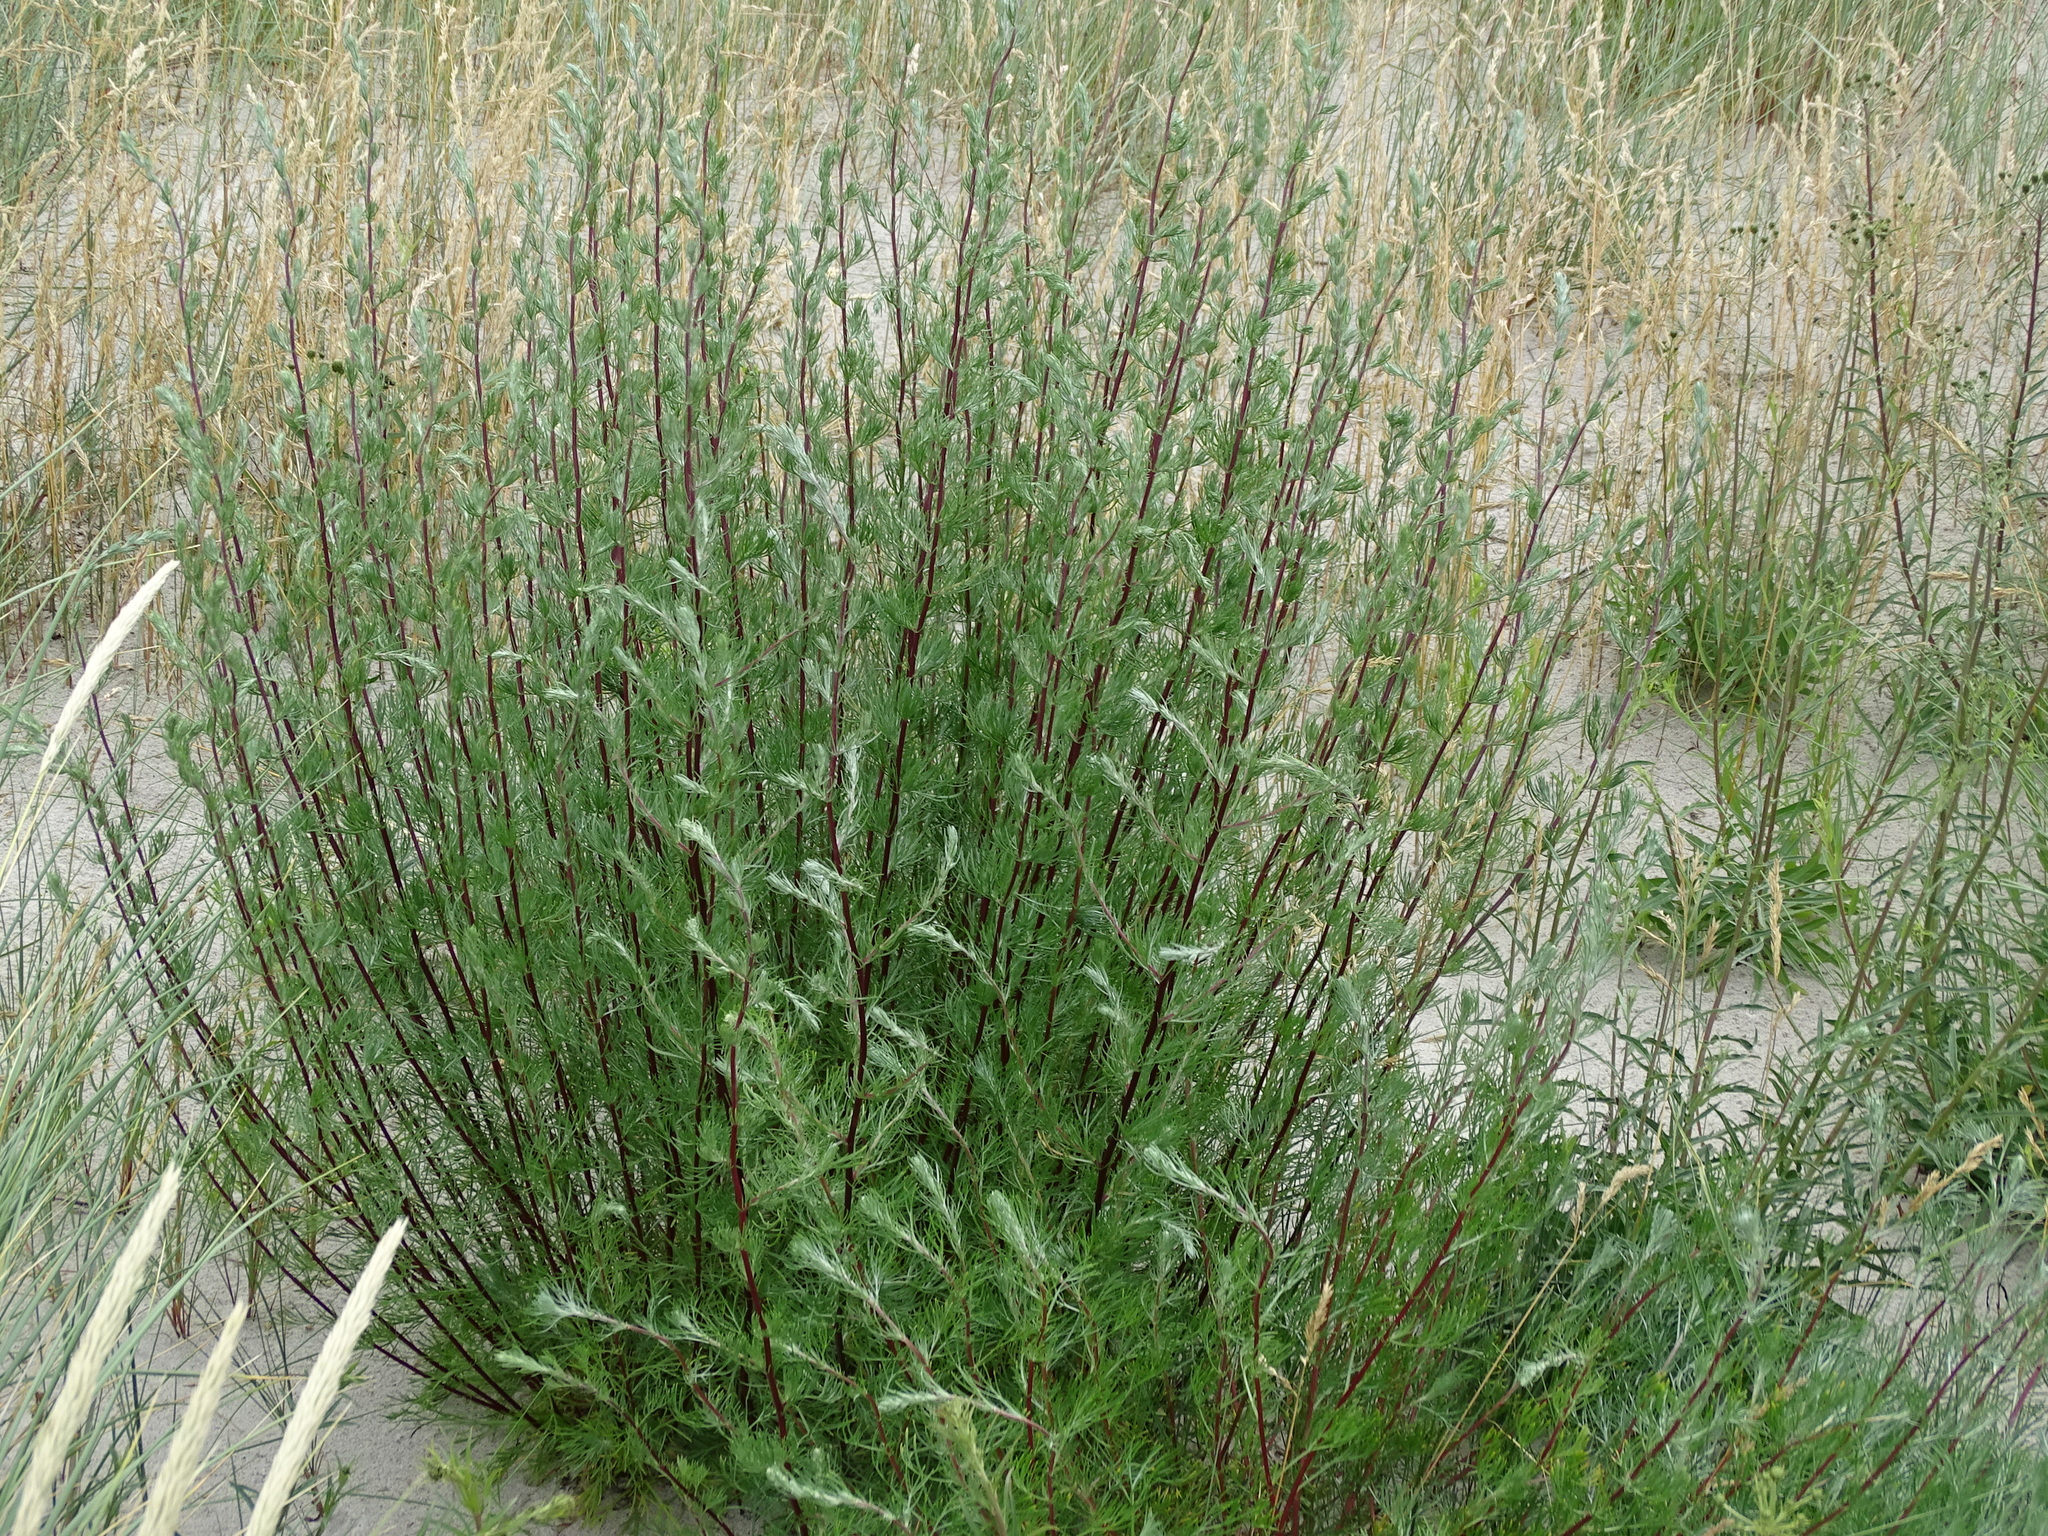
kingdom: Plantae
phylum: Tracheophyta
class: Magnoliopsida
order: Asterales
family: Asteraceae
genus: Artemisia
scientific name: Artemisia campestris
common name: Field wormwood
